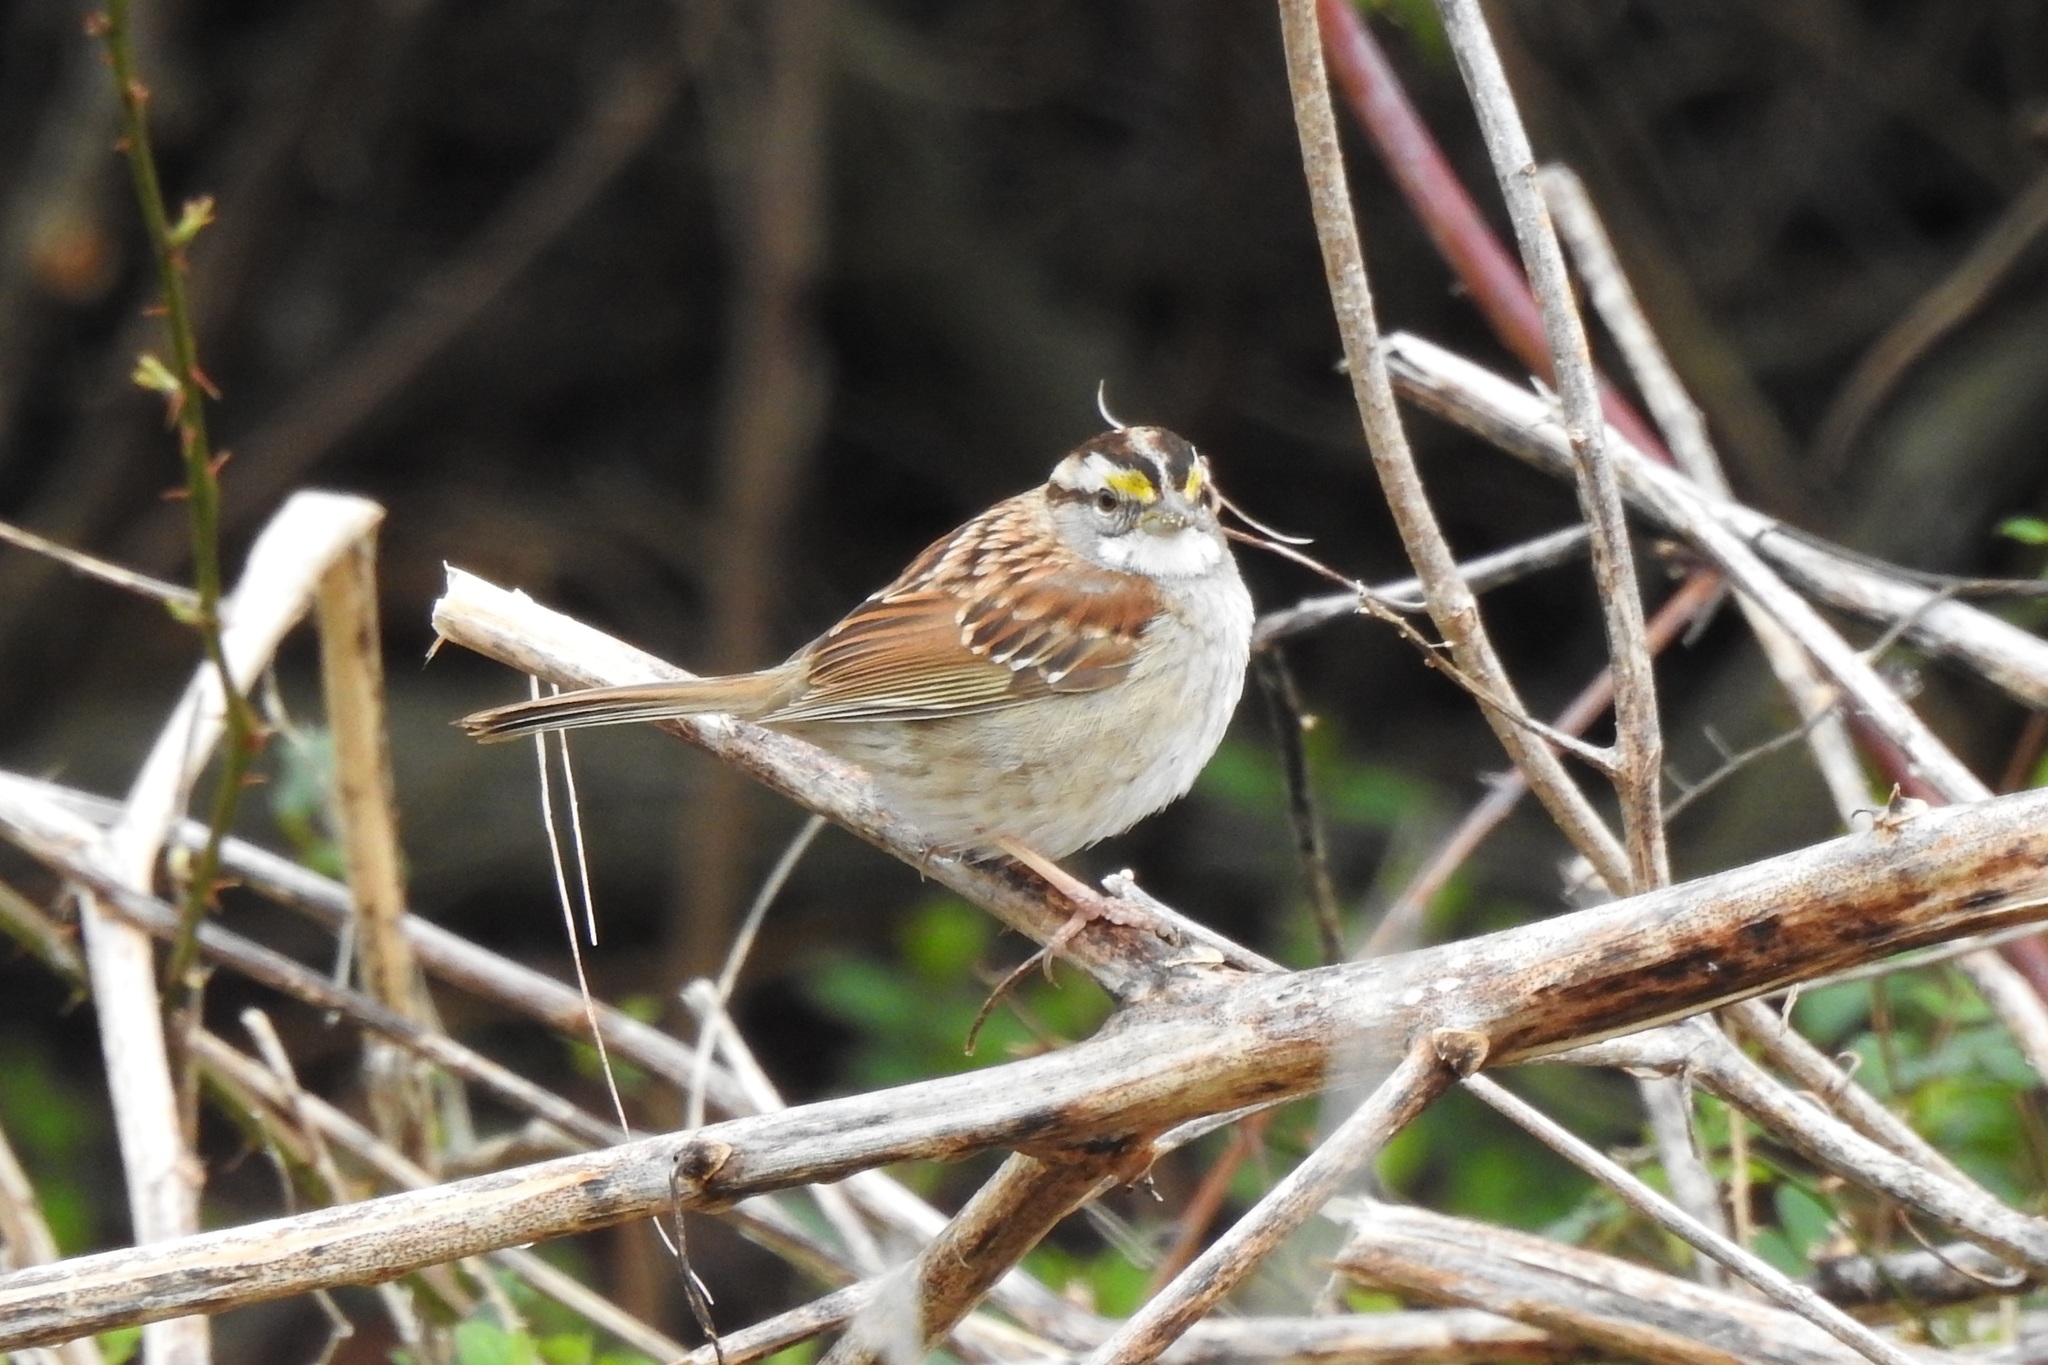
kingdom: Animalia
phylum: Chordata
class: Aves
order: Passeriformes
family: Passerellidae
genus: Zonotrichia
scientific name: Zonotrichia albicollis
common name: White-throated sparrow
